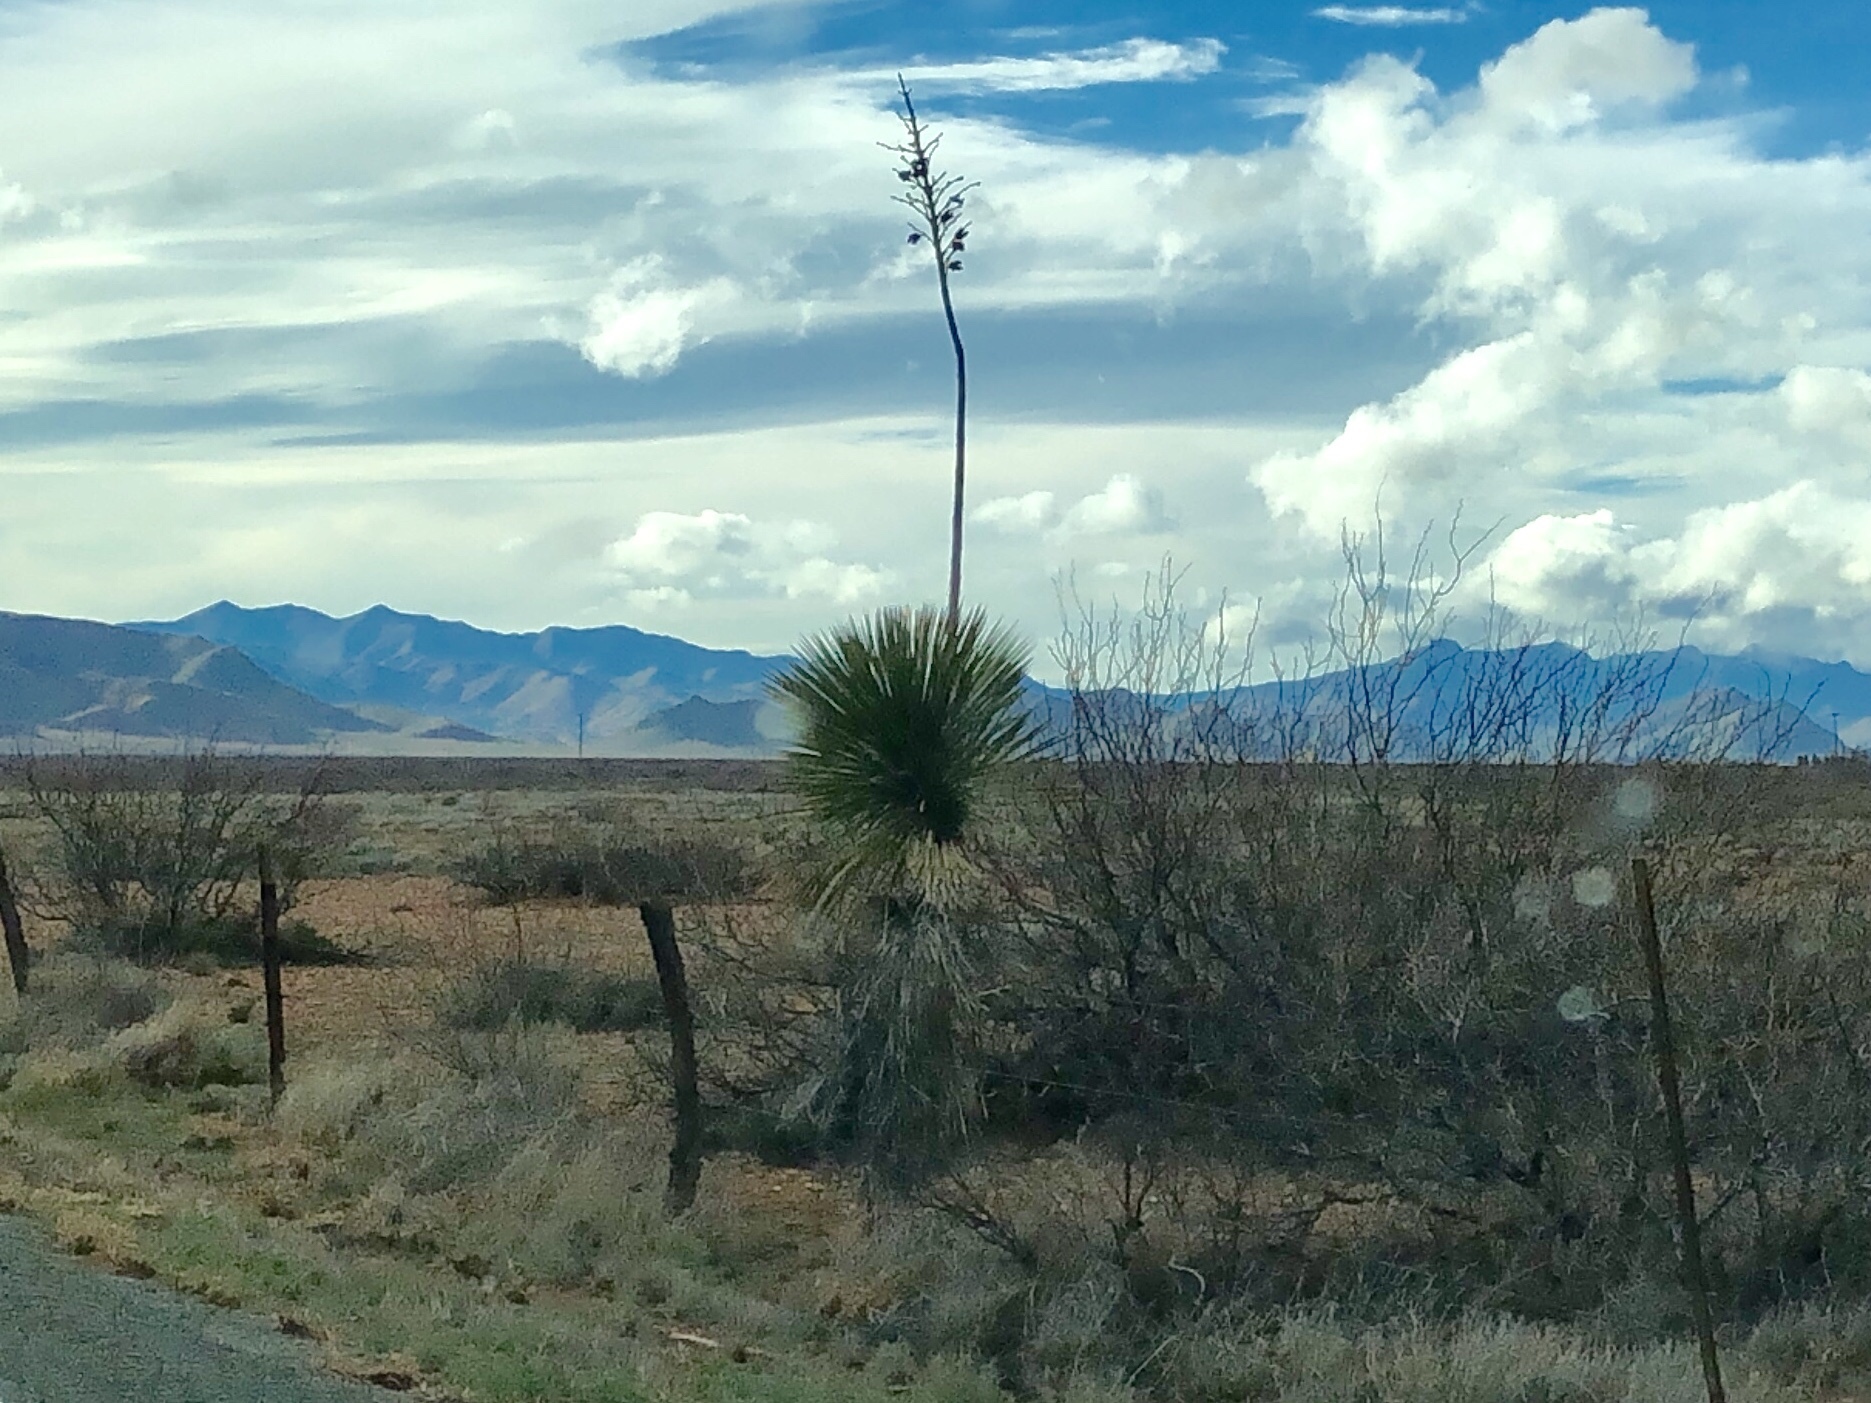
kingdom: Plantae
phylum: Tracheophyta
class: Liliopsida
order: Asparagales
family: Asparagaceae
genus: Yucca
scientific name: Yucca elata
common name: Palmella
